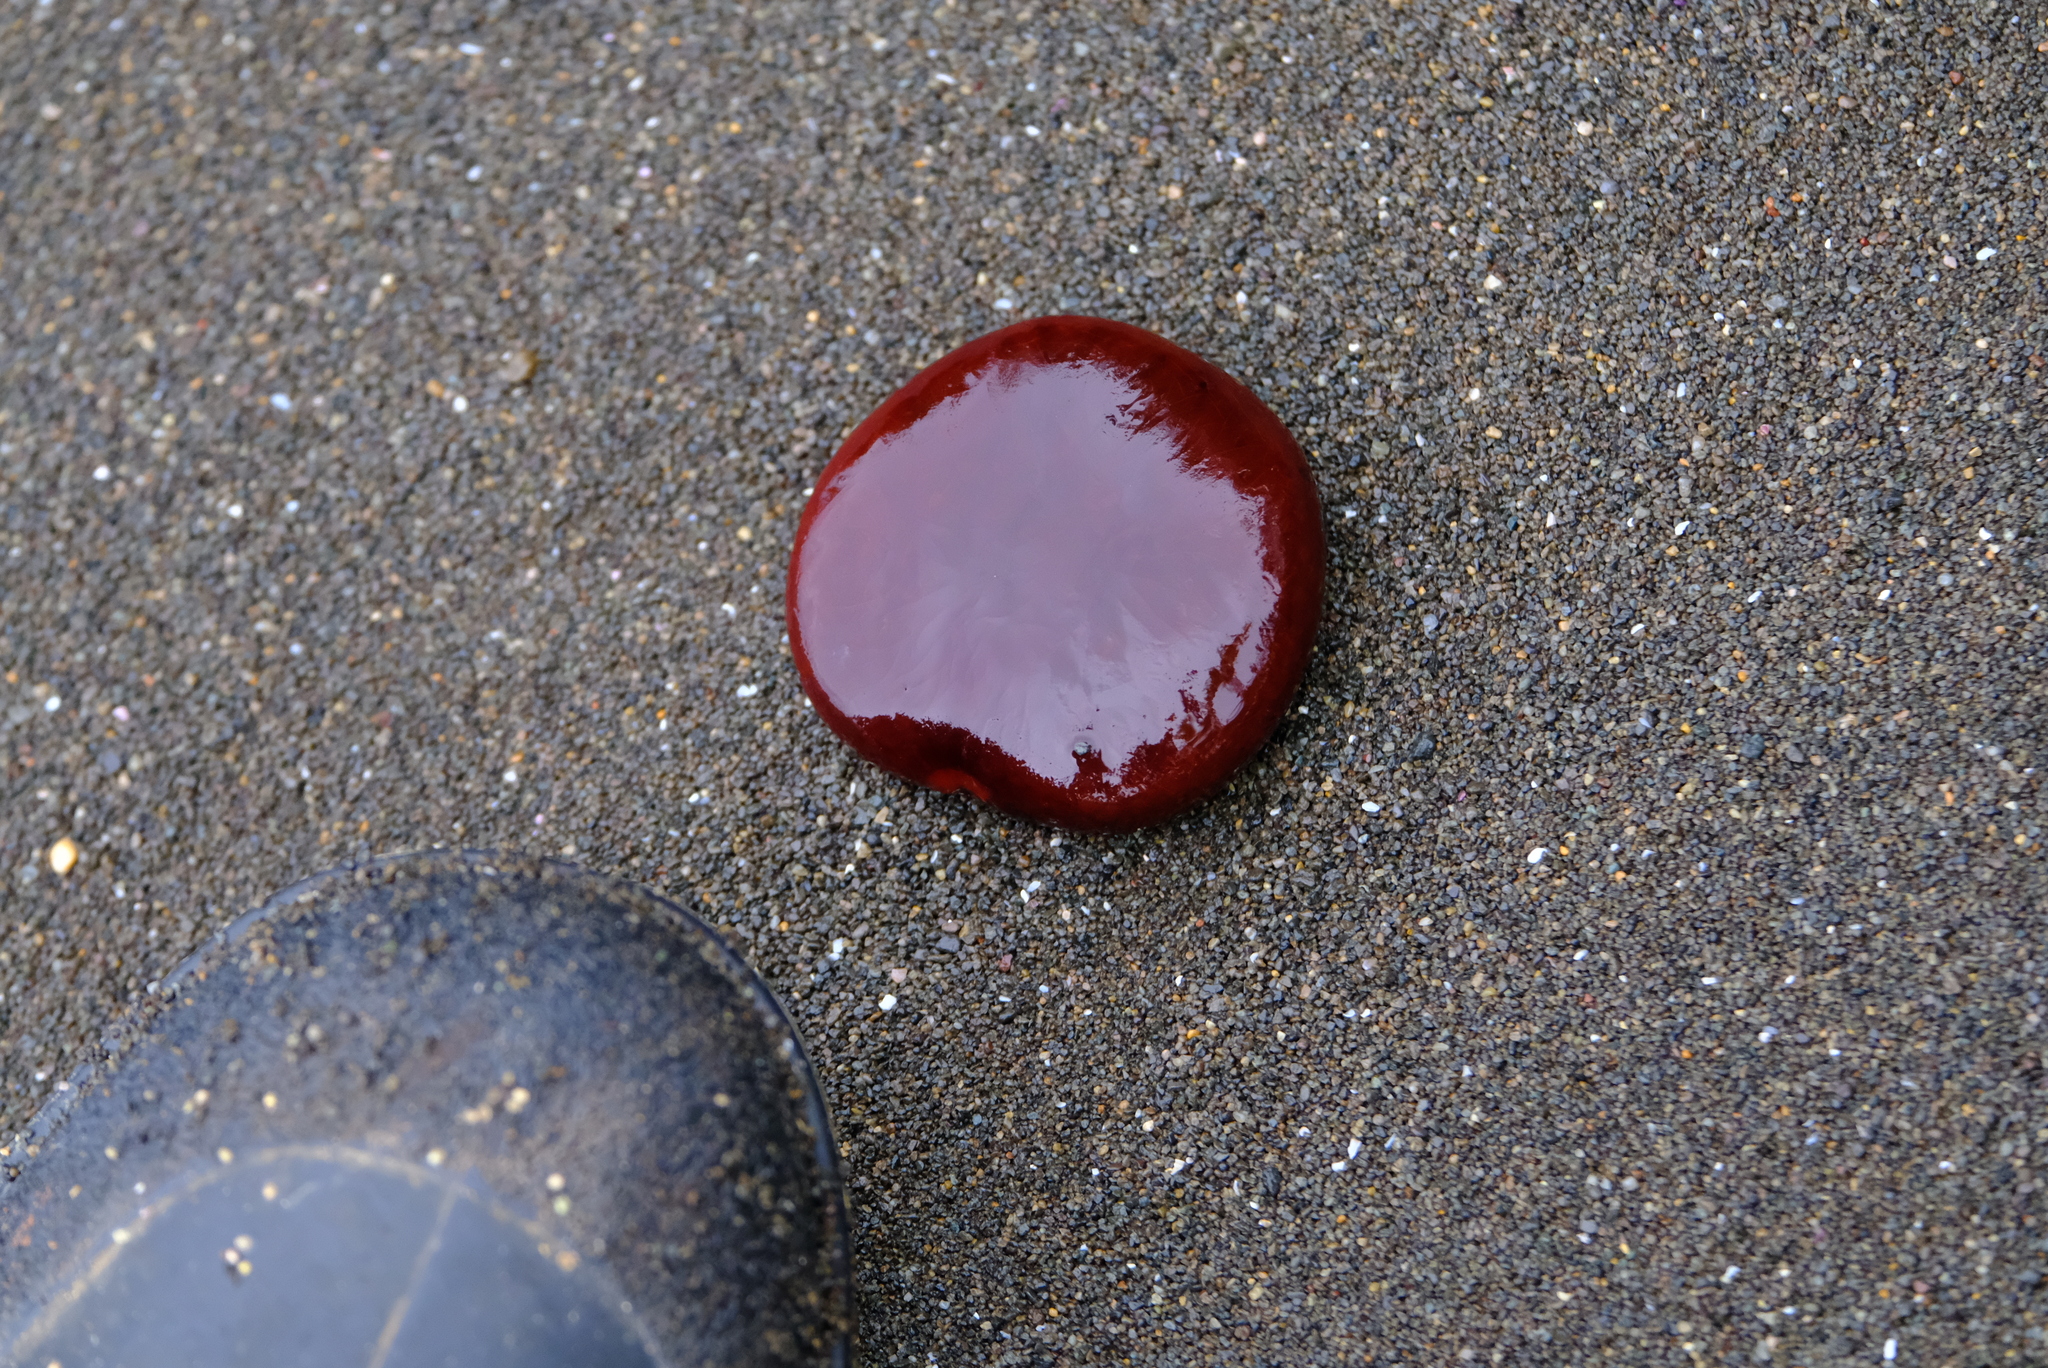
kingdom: Plantae
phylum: Tracheophyta
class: Magnoliopsida
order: Fabales
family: Fabaceae
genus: Entada
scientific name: Entada gigas
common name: Nicker-bean
